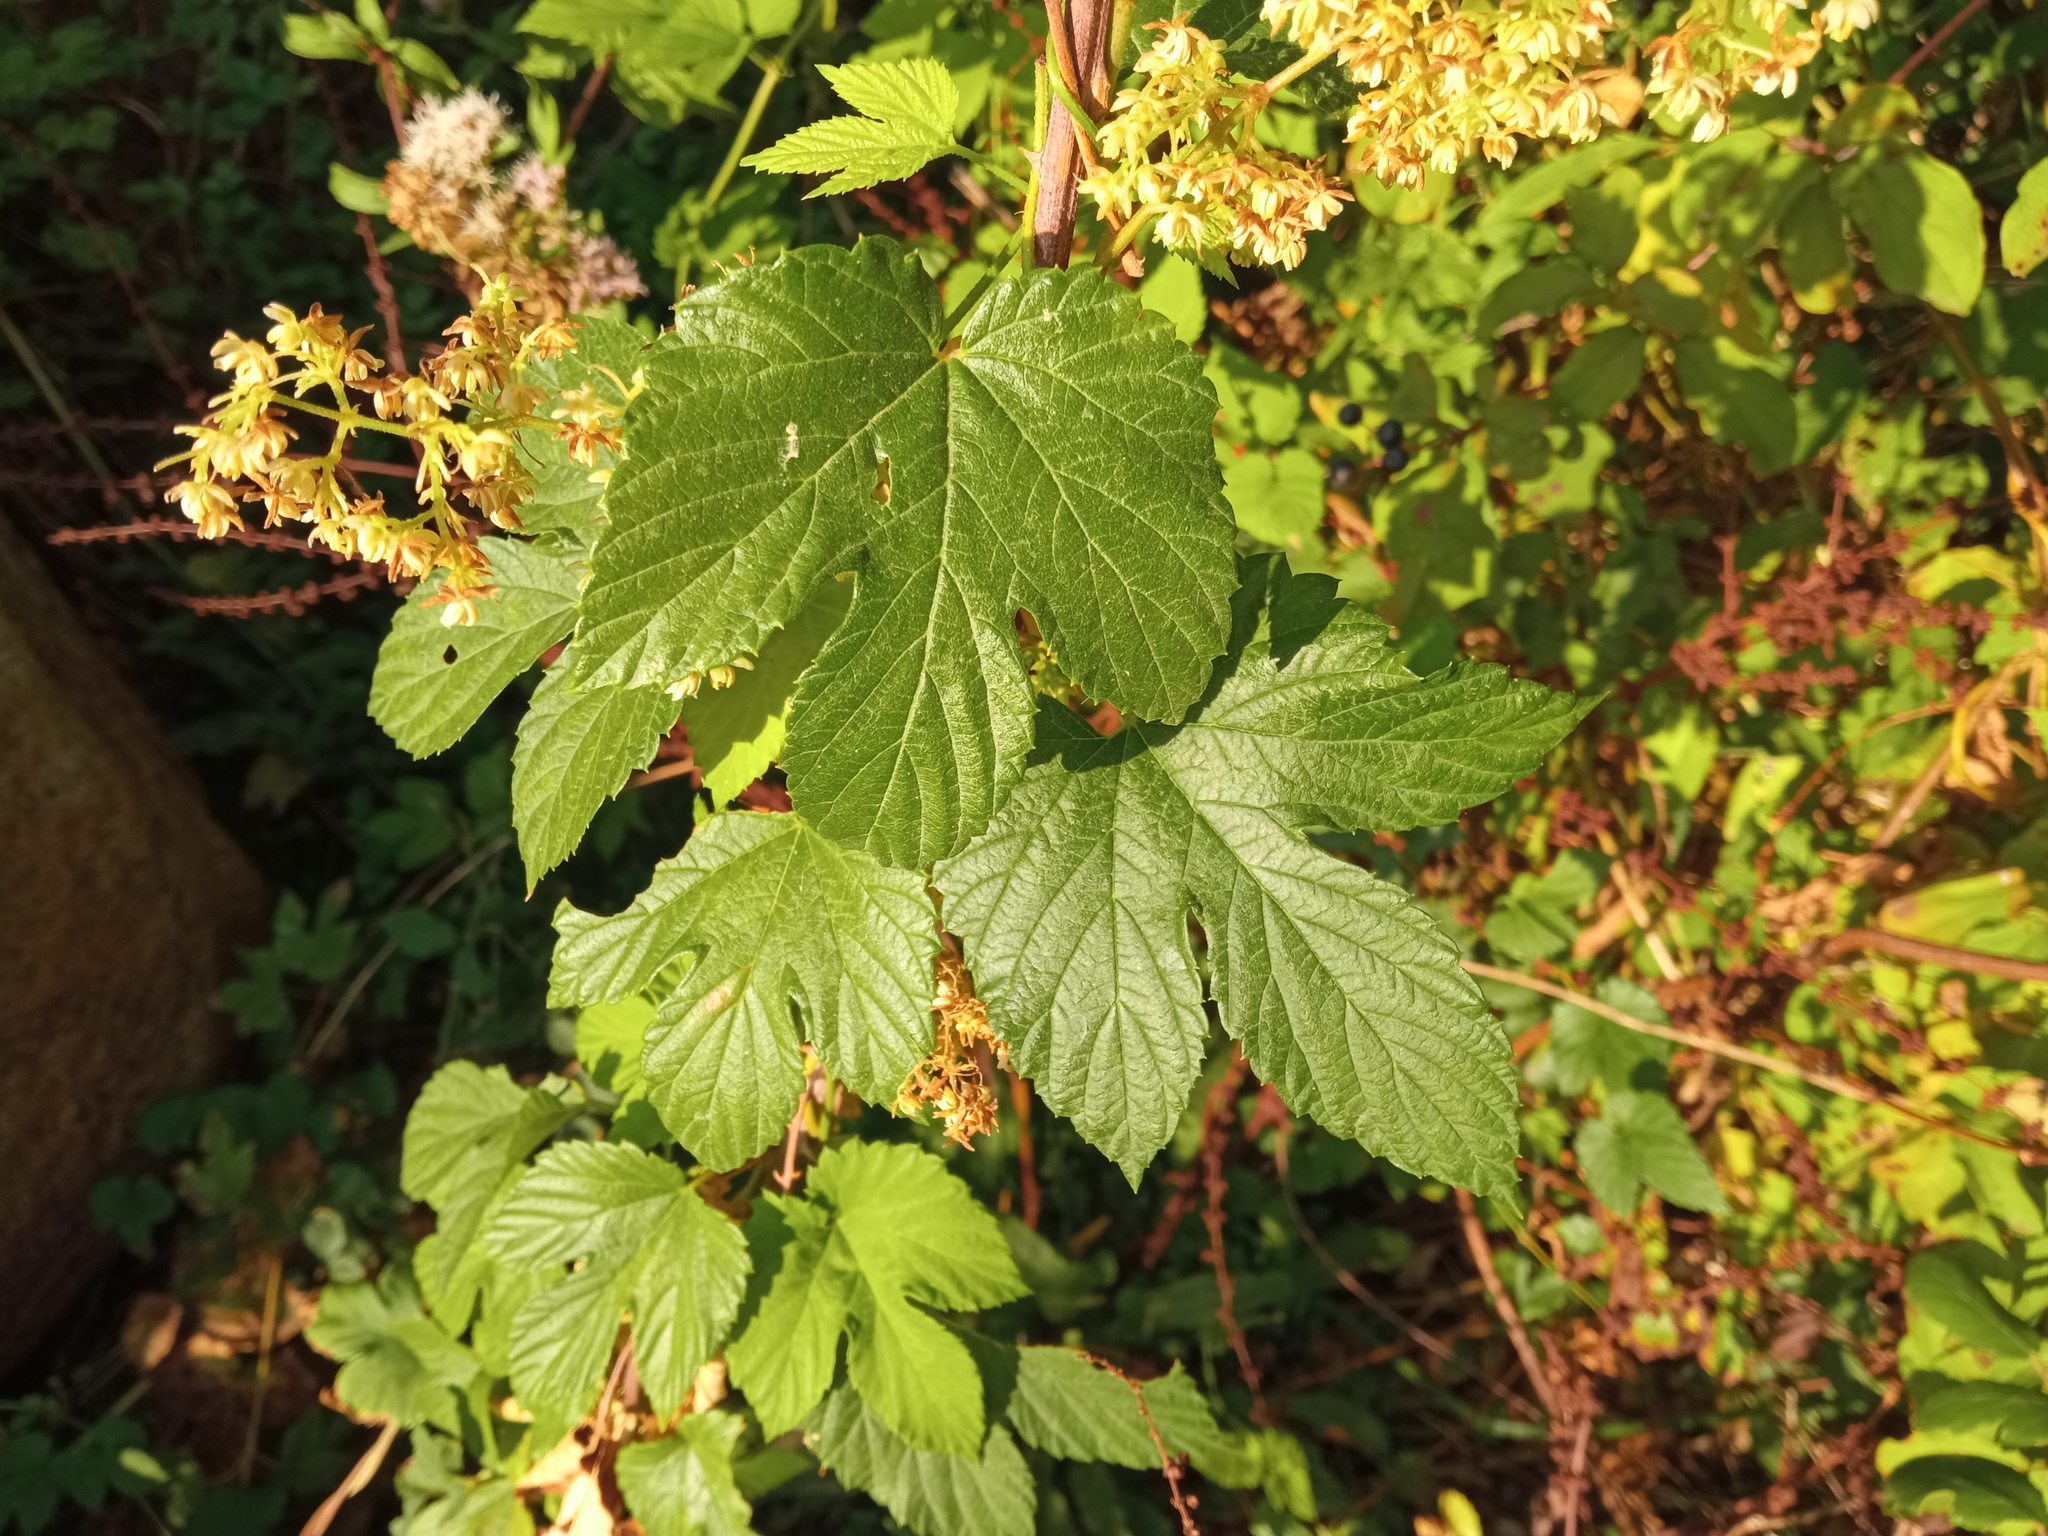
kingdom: Plantae
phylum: Tracheophyta
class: Magnoliopsida
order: Rosales
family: Cannabaceae
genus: Humulus
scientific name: Humulus lupulus
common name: Hop
